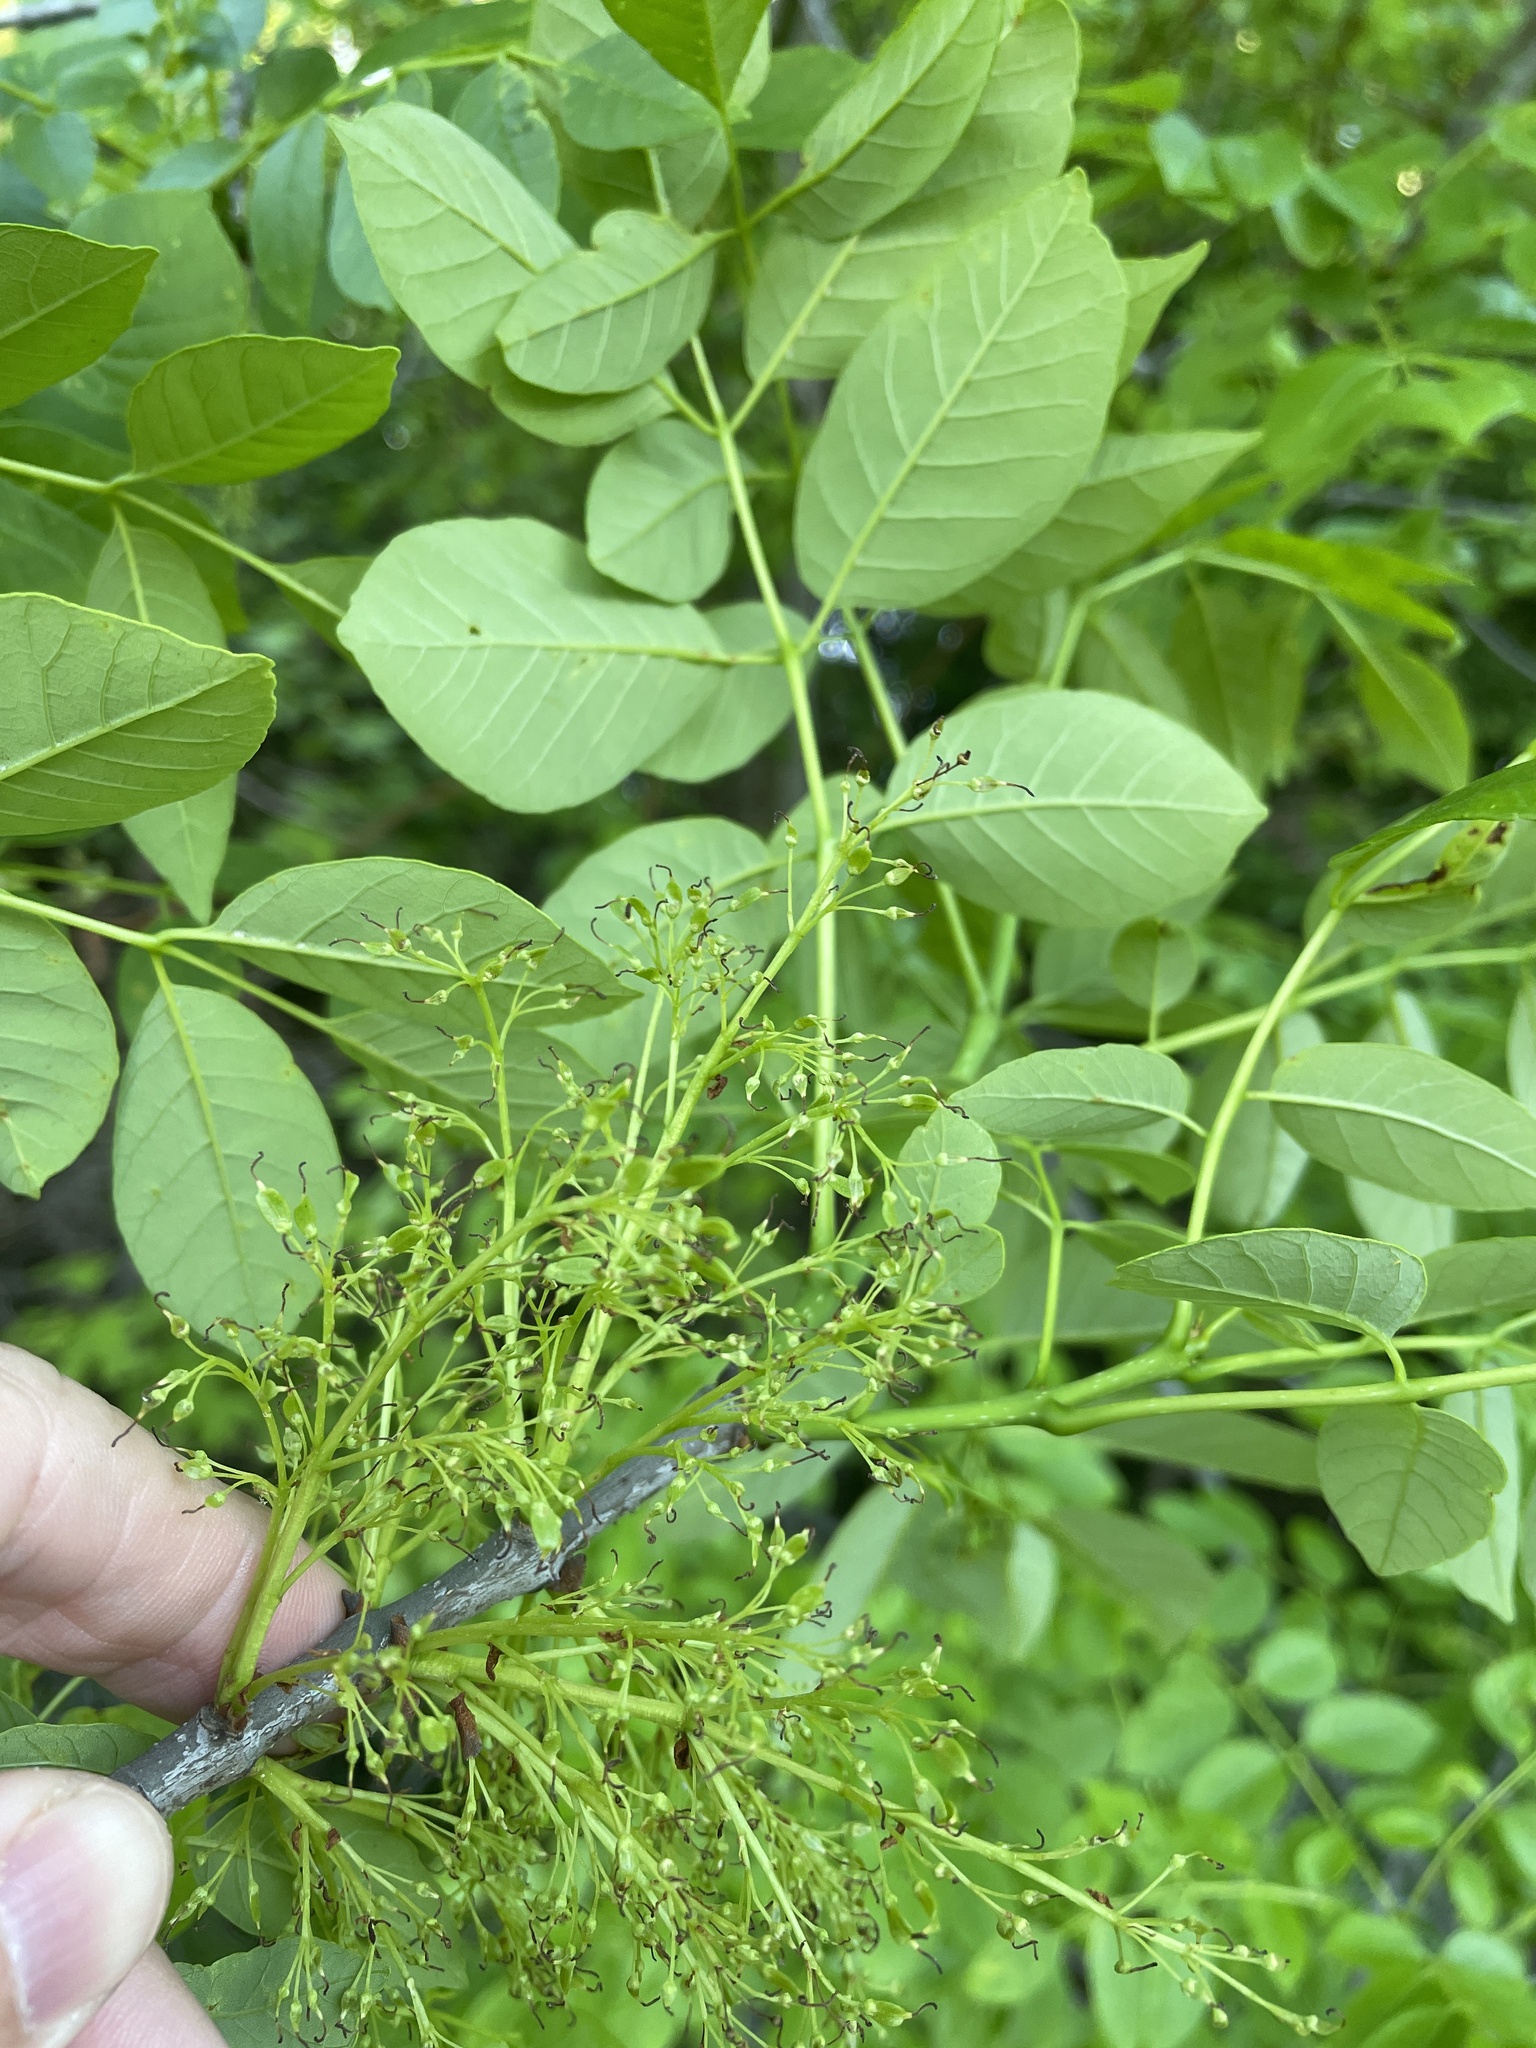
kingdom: Plantae
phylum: Tracheophyta
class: Magnoliopsida
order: Lamiales
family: Oleaceae
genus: Fraxinus
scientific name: Fraxinus albicans
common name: Texas ash
